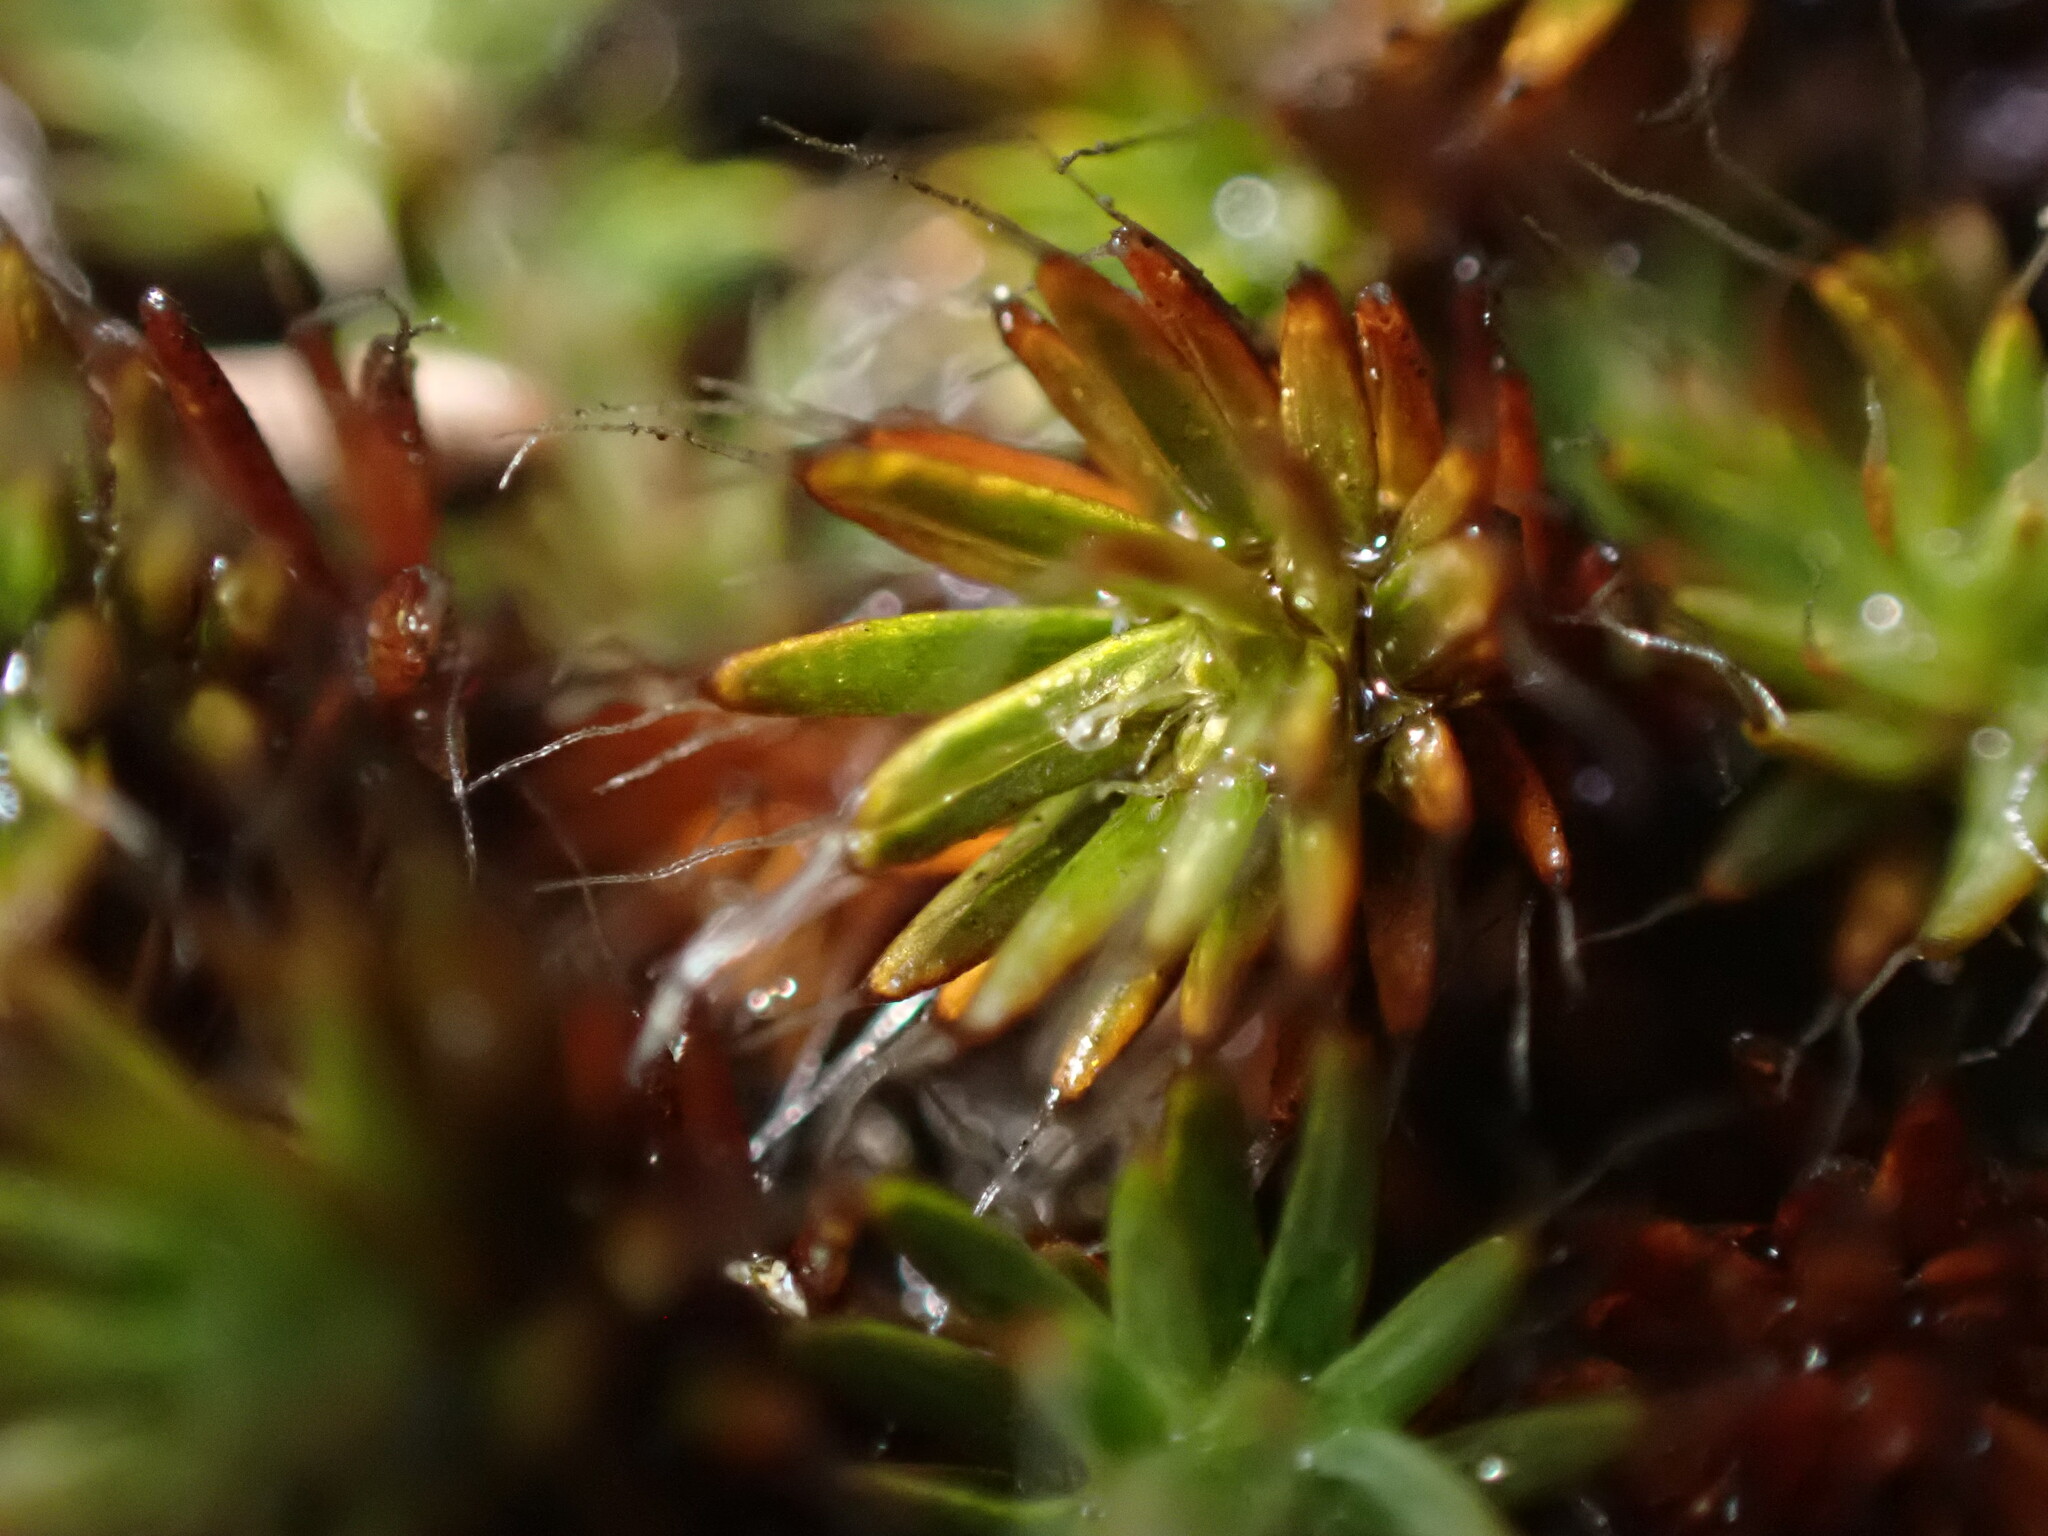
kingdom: Plantae
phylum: Bryophyta
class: Polytrichopsida
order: Polytrichales
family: Polytrichaceae
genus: Polytrichum
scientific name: Polytrichum piliferum
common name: Bristly haircap
